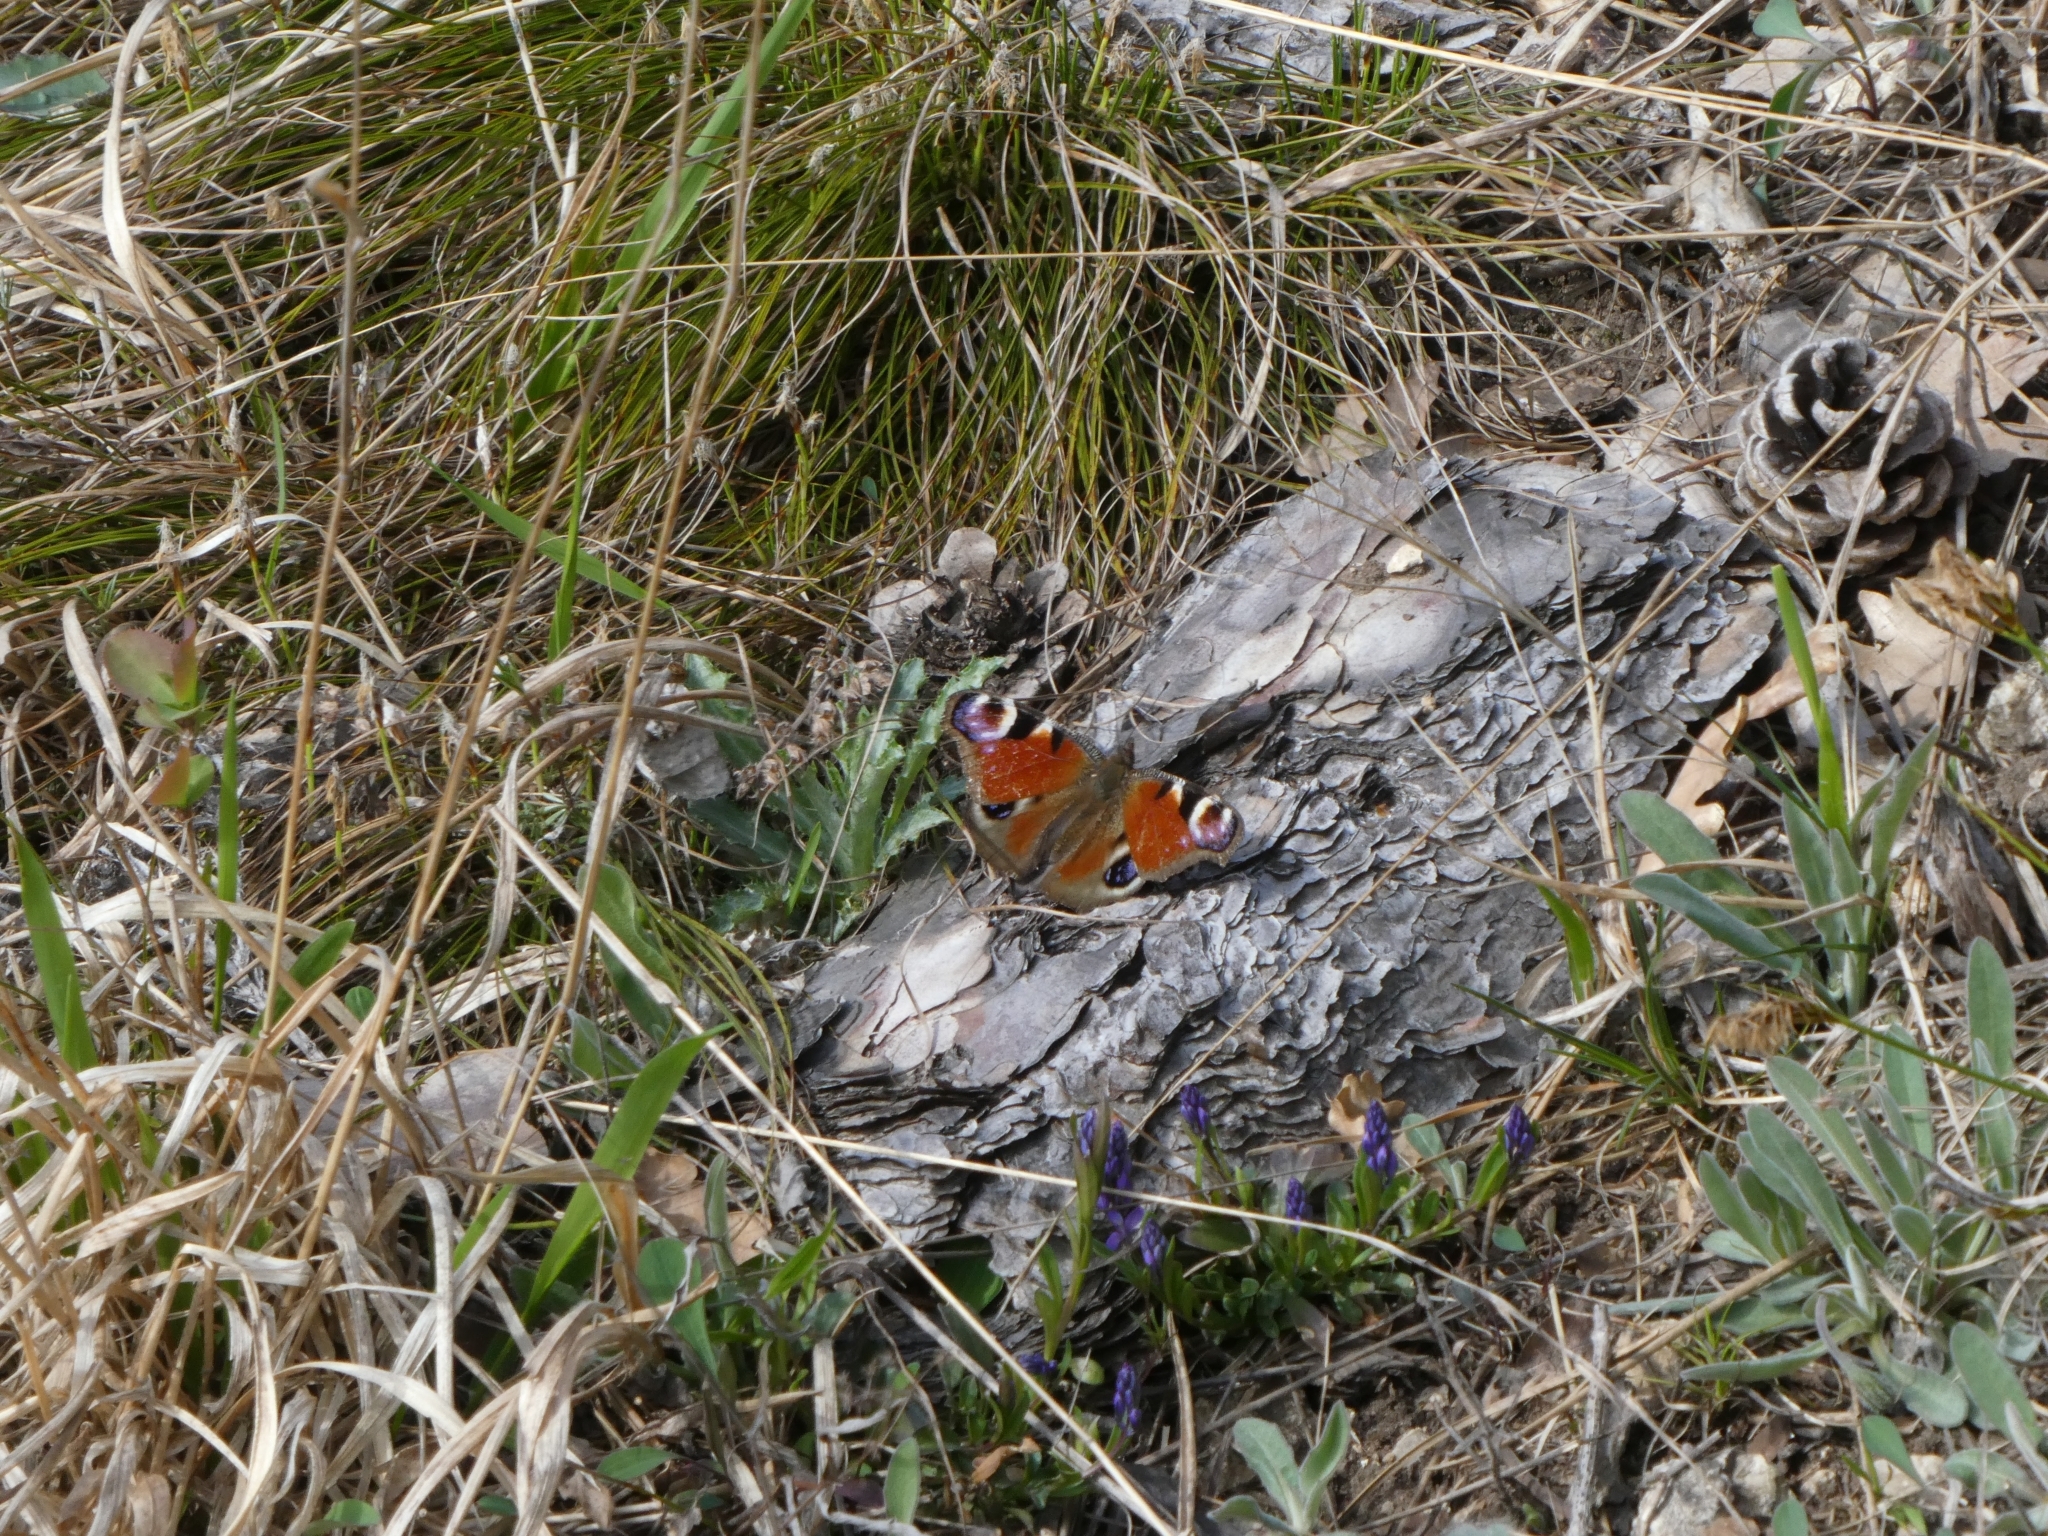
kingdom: Animalia
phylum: Arthropoda
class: Insecta
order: Lepidoptera
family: Nymphalidae
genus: Aglais
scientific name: Aglais io
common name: Peacock
